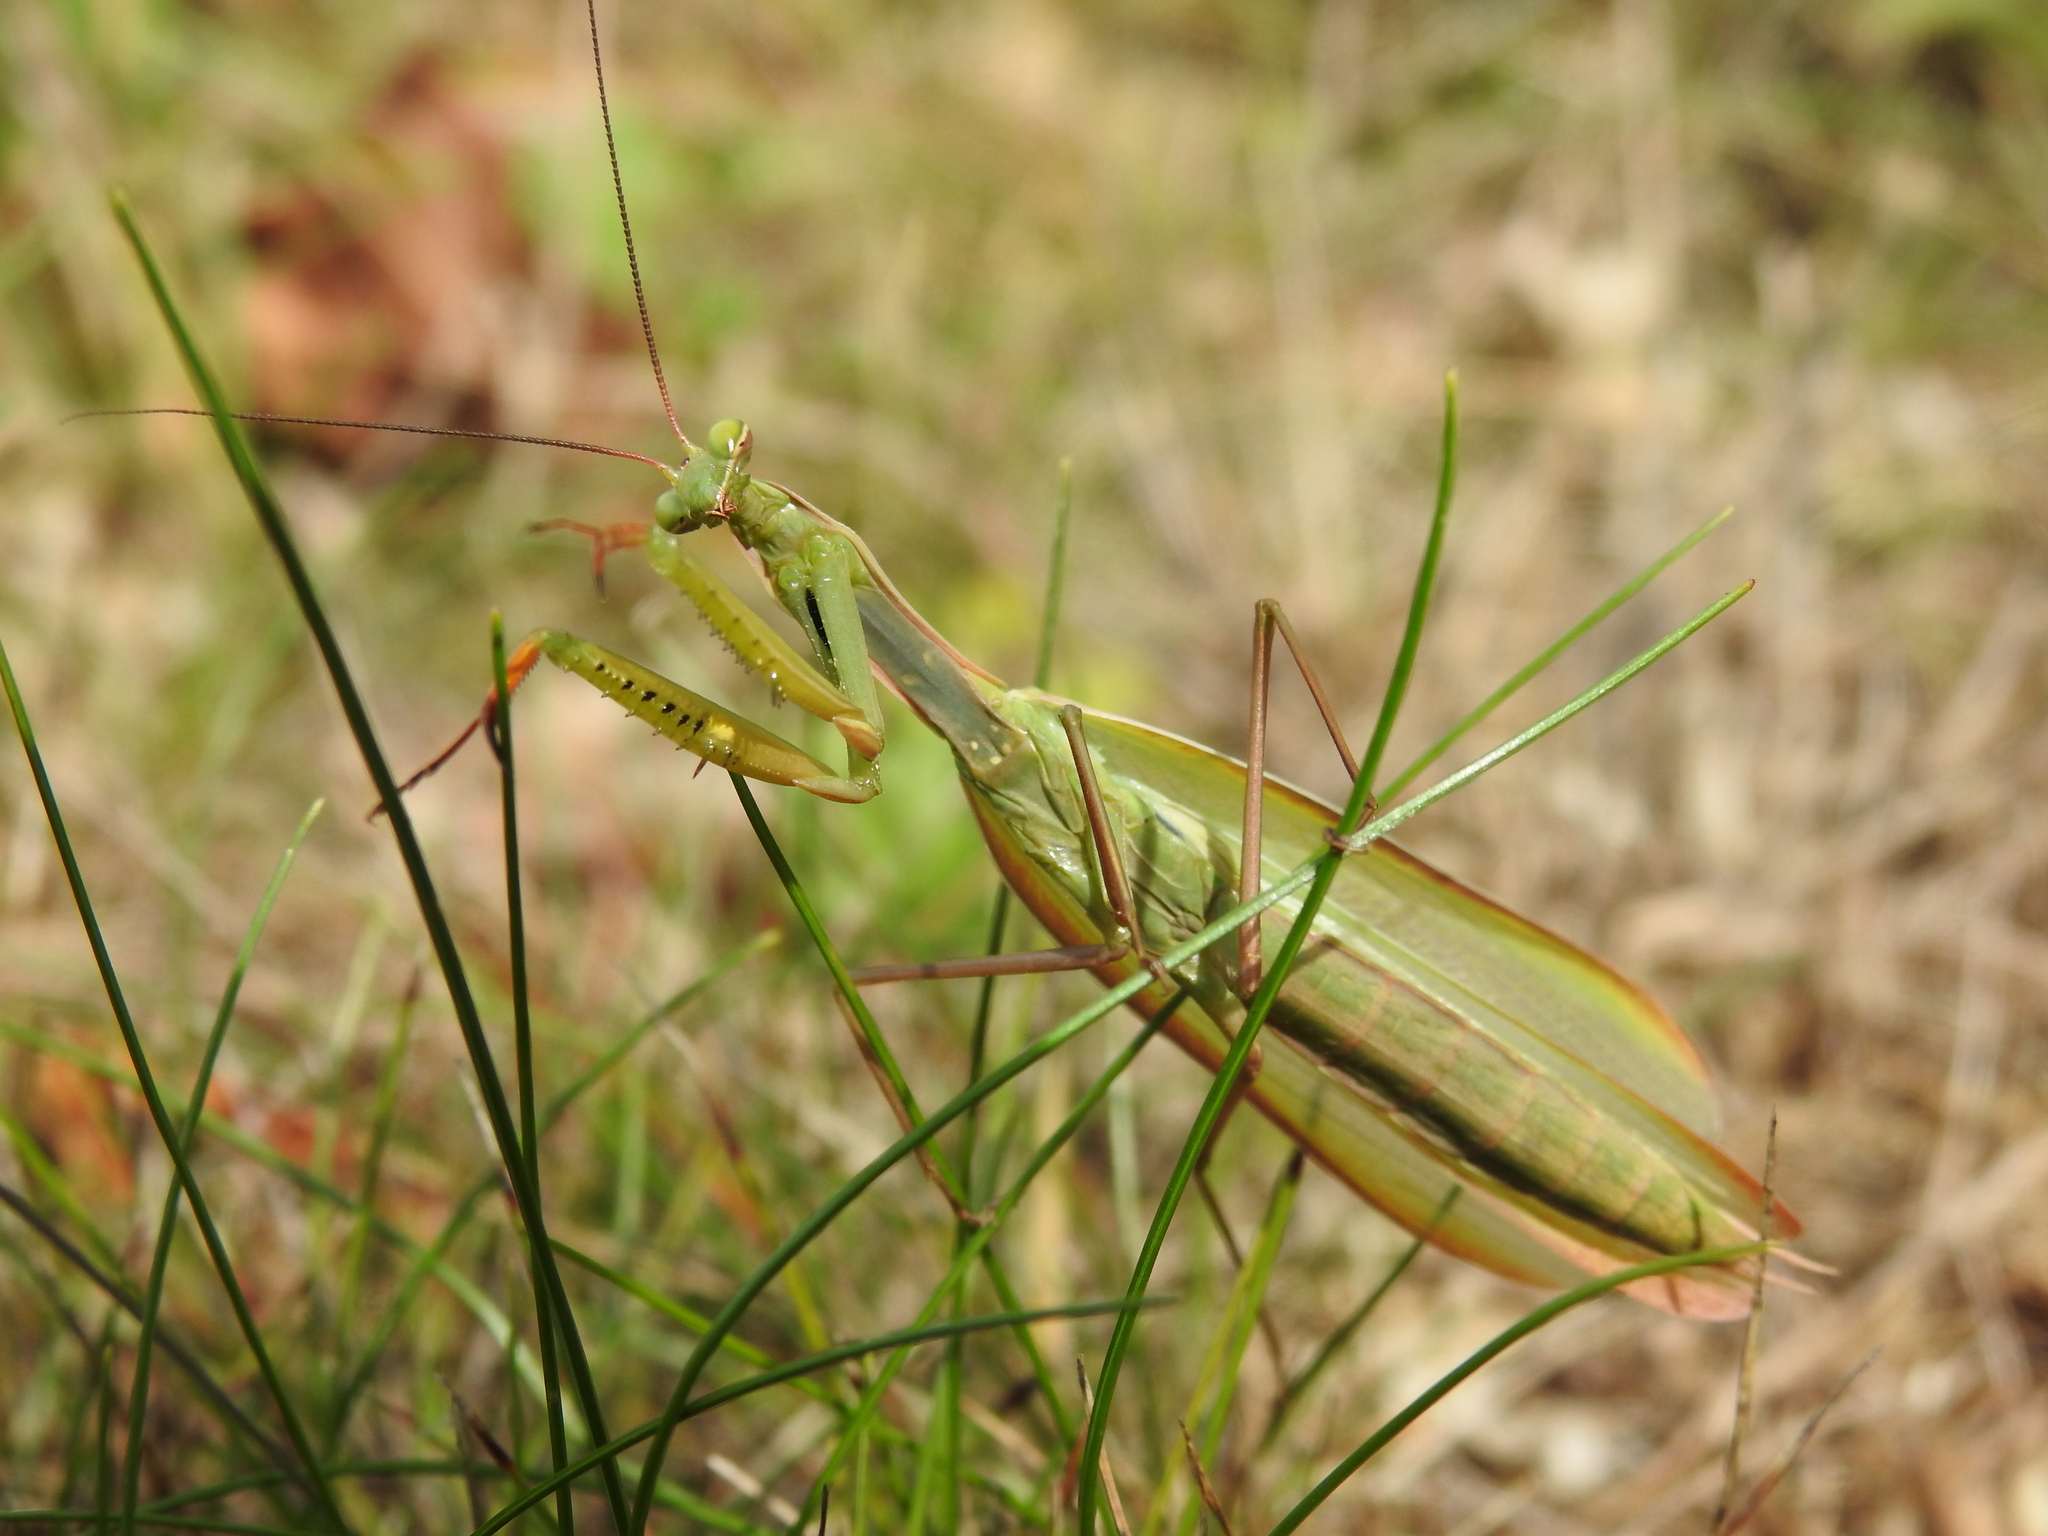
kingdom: Animalia
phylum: Arthropoda
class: Insecta
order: Mantodea
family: Mantidae
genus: Mantis
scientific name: Mantis religiosa
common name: Praying mantis
